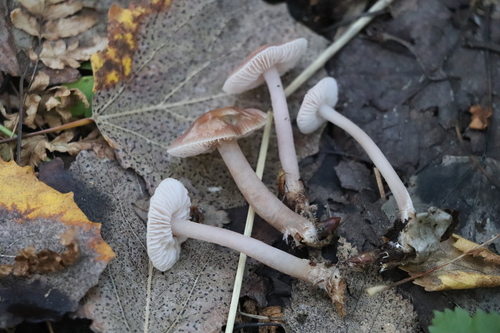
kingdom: Fungi
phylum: Basidiomycota
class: Agaricomycetes
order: Agaricales
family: Mycenaceae
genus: Mycena
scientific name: Mycena pura
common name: Lilac bonnet
